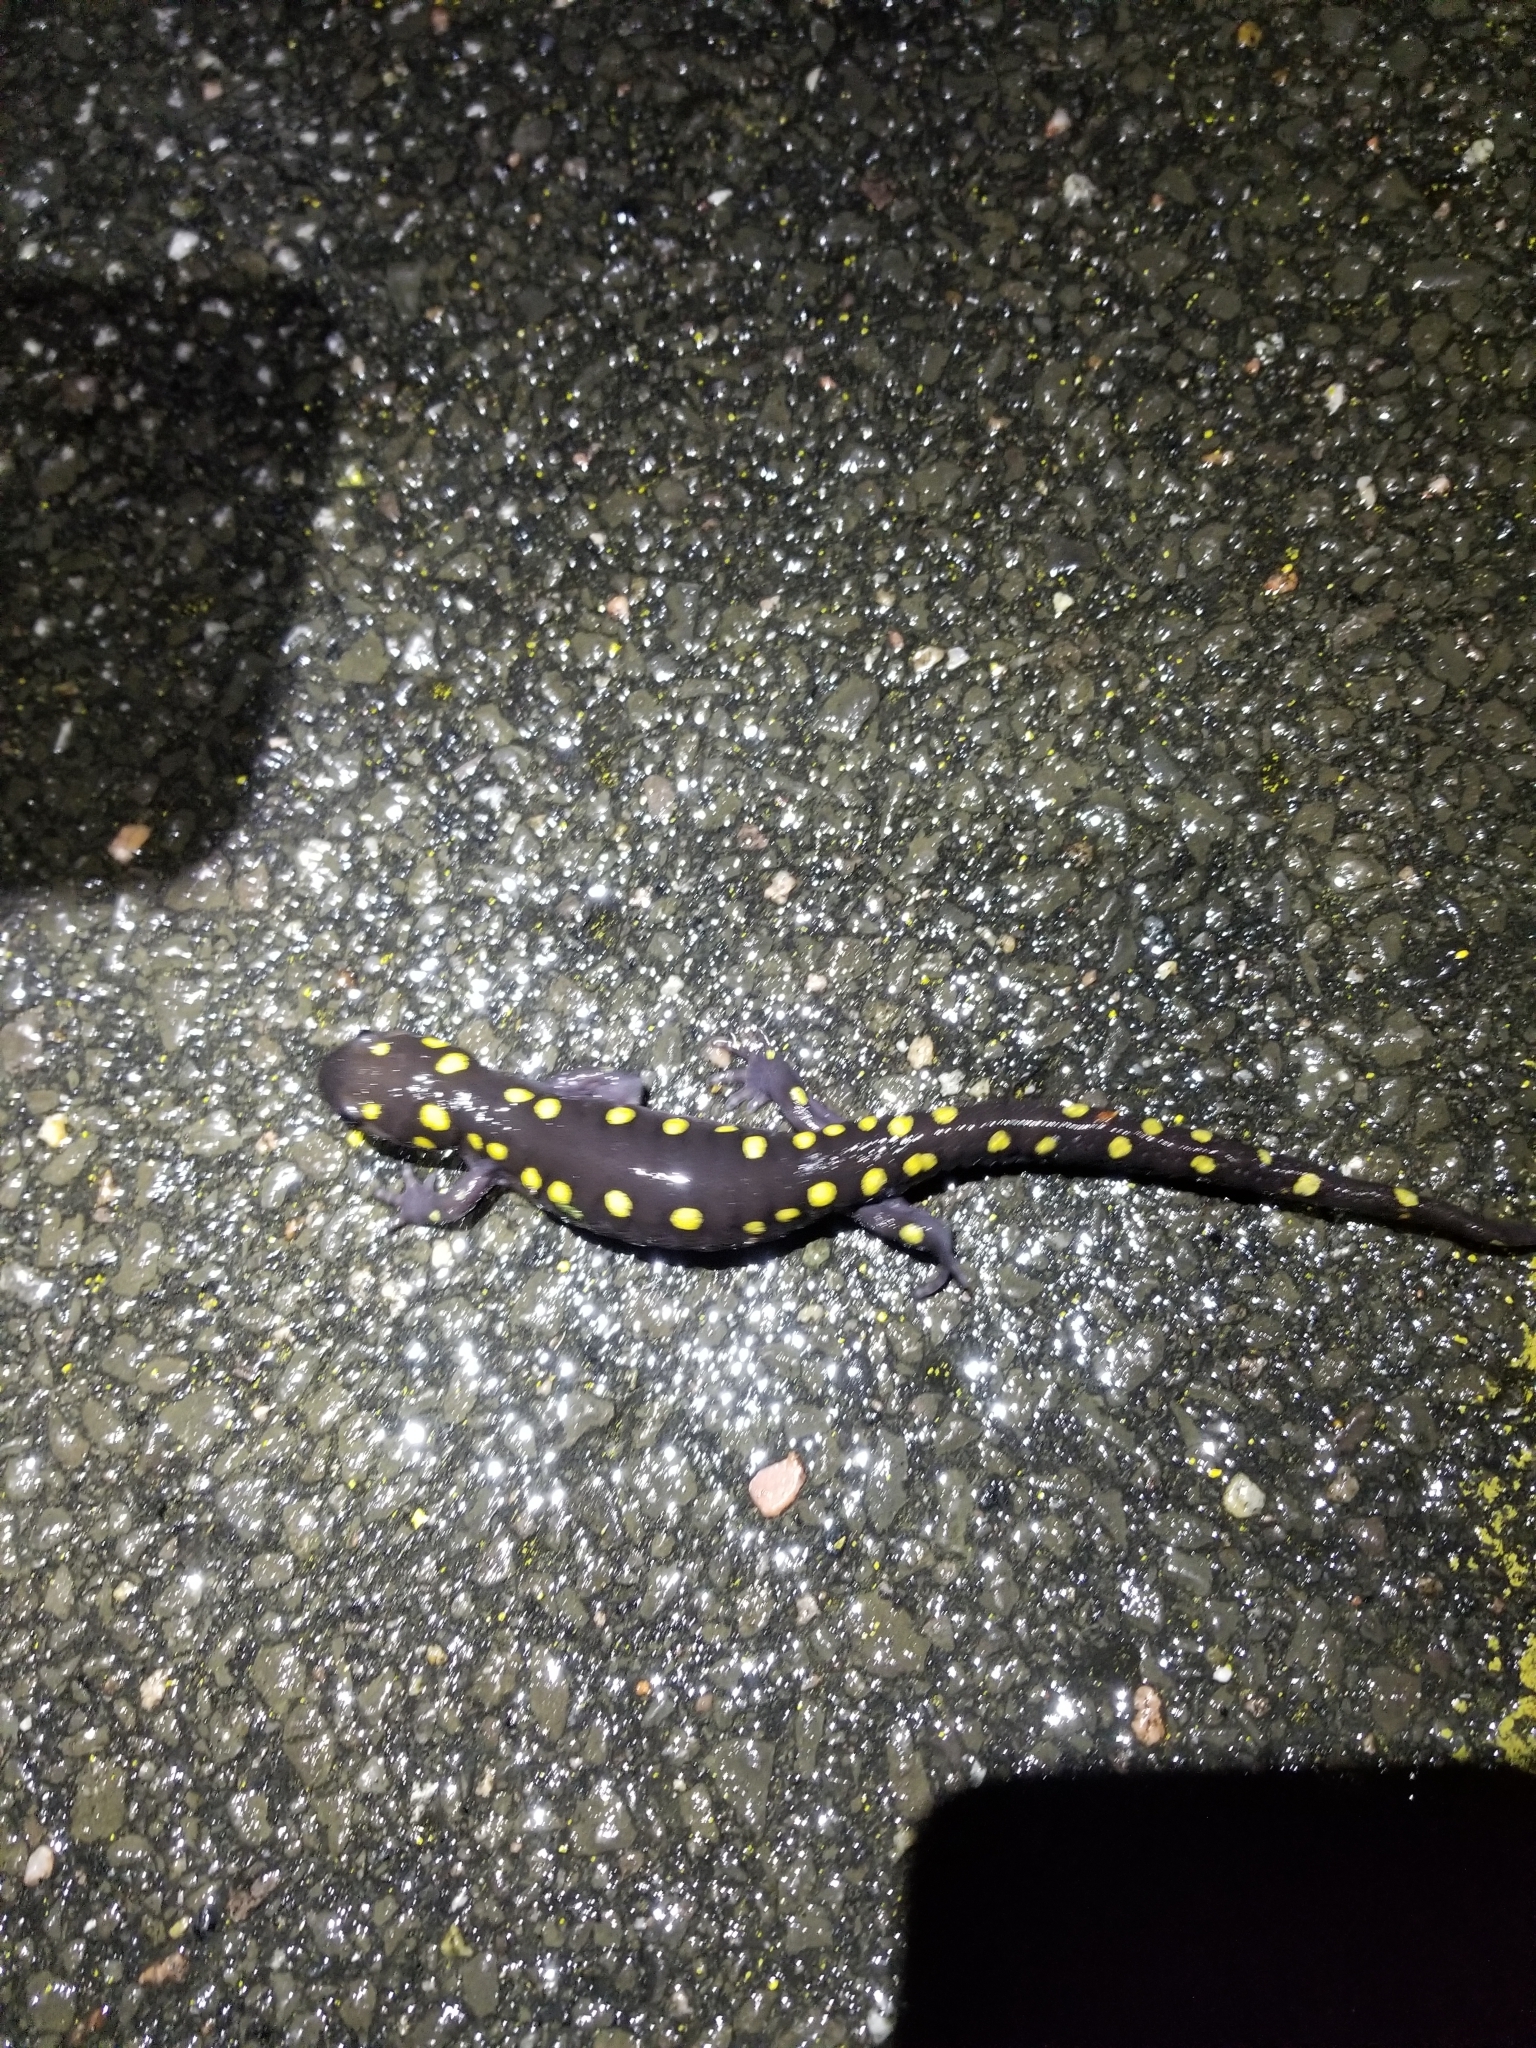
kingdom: Animalia
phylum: Chordata
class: Amphibia
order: Caudata
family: Ambystomatidae
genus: Ambystoma
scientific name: Ambystoma maculatum
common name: Spotted salamander
